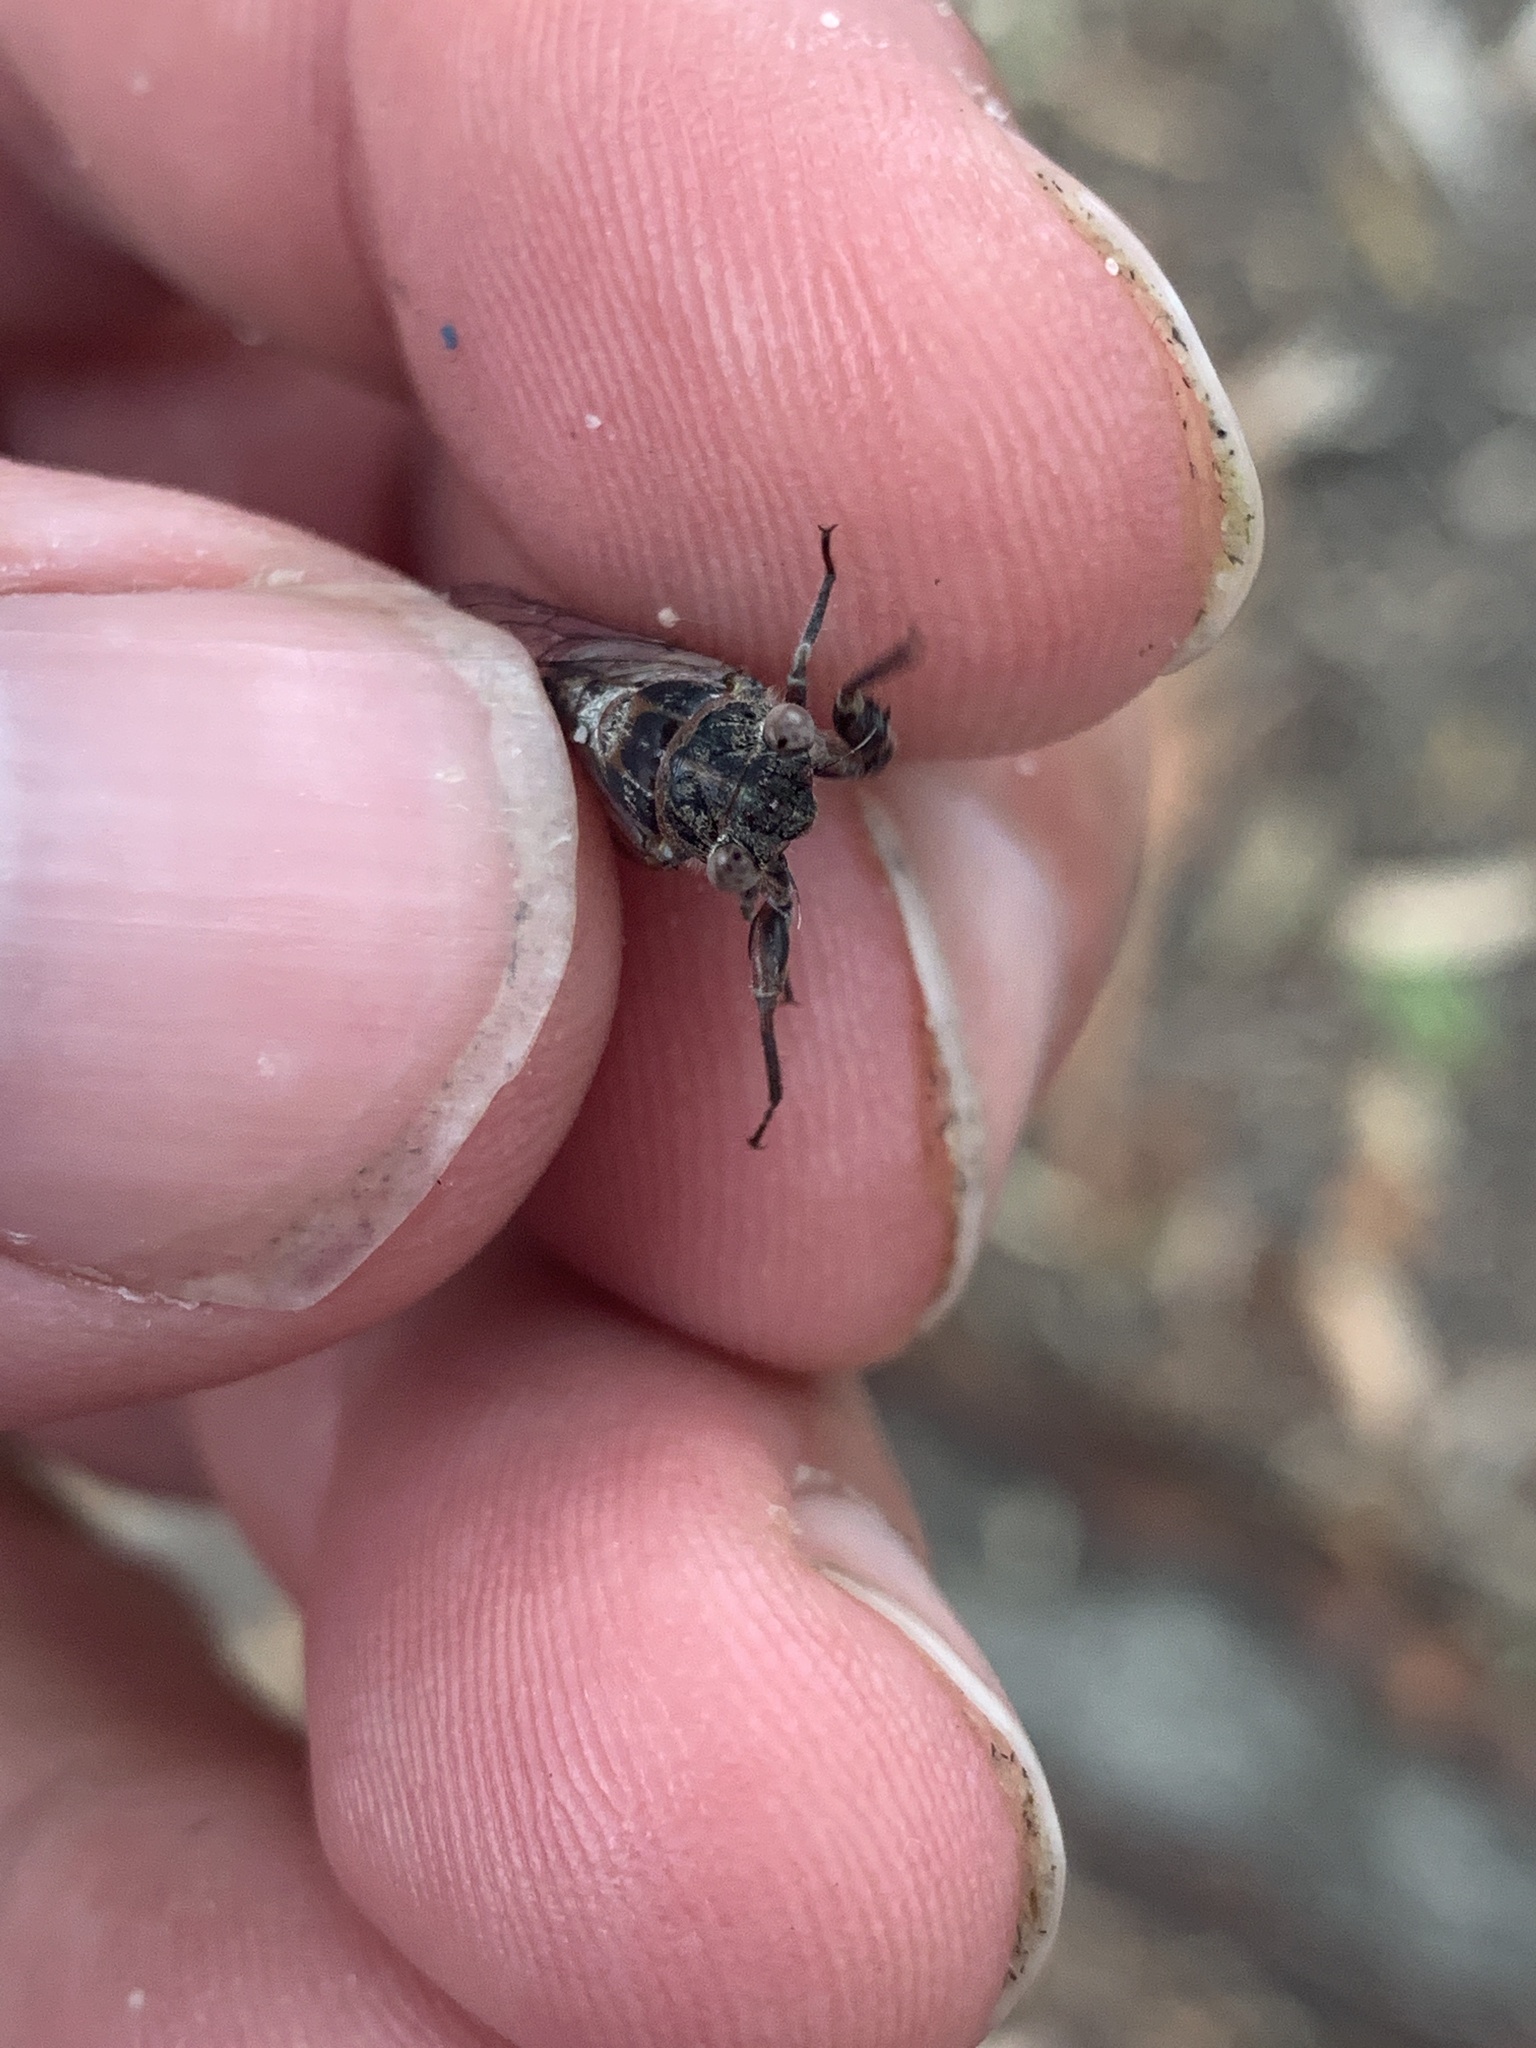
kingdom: Animalia
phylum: Arthropoda
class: Insecta
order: Hemiptera
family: Cicadidae
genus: Atrapsalta
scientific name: Atrapsalta fuscata
